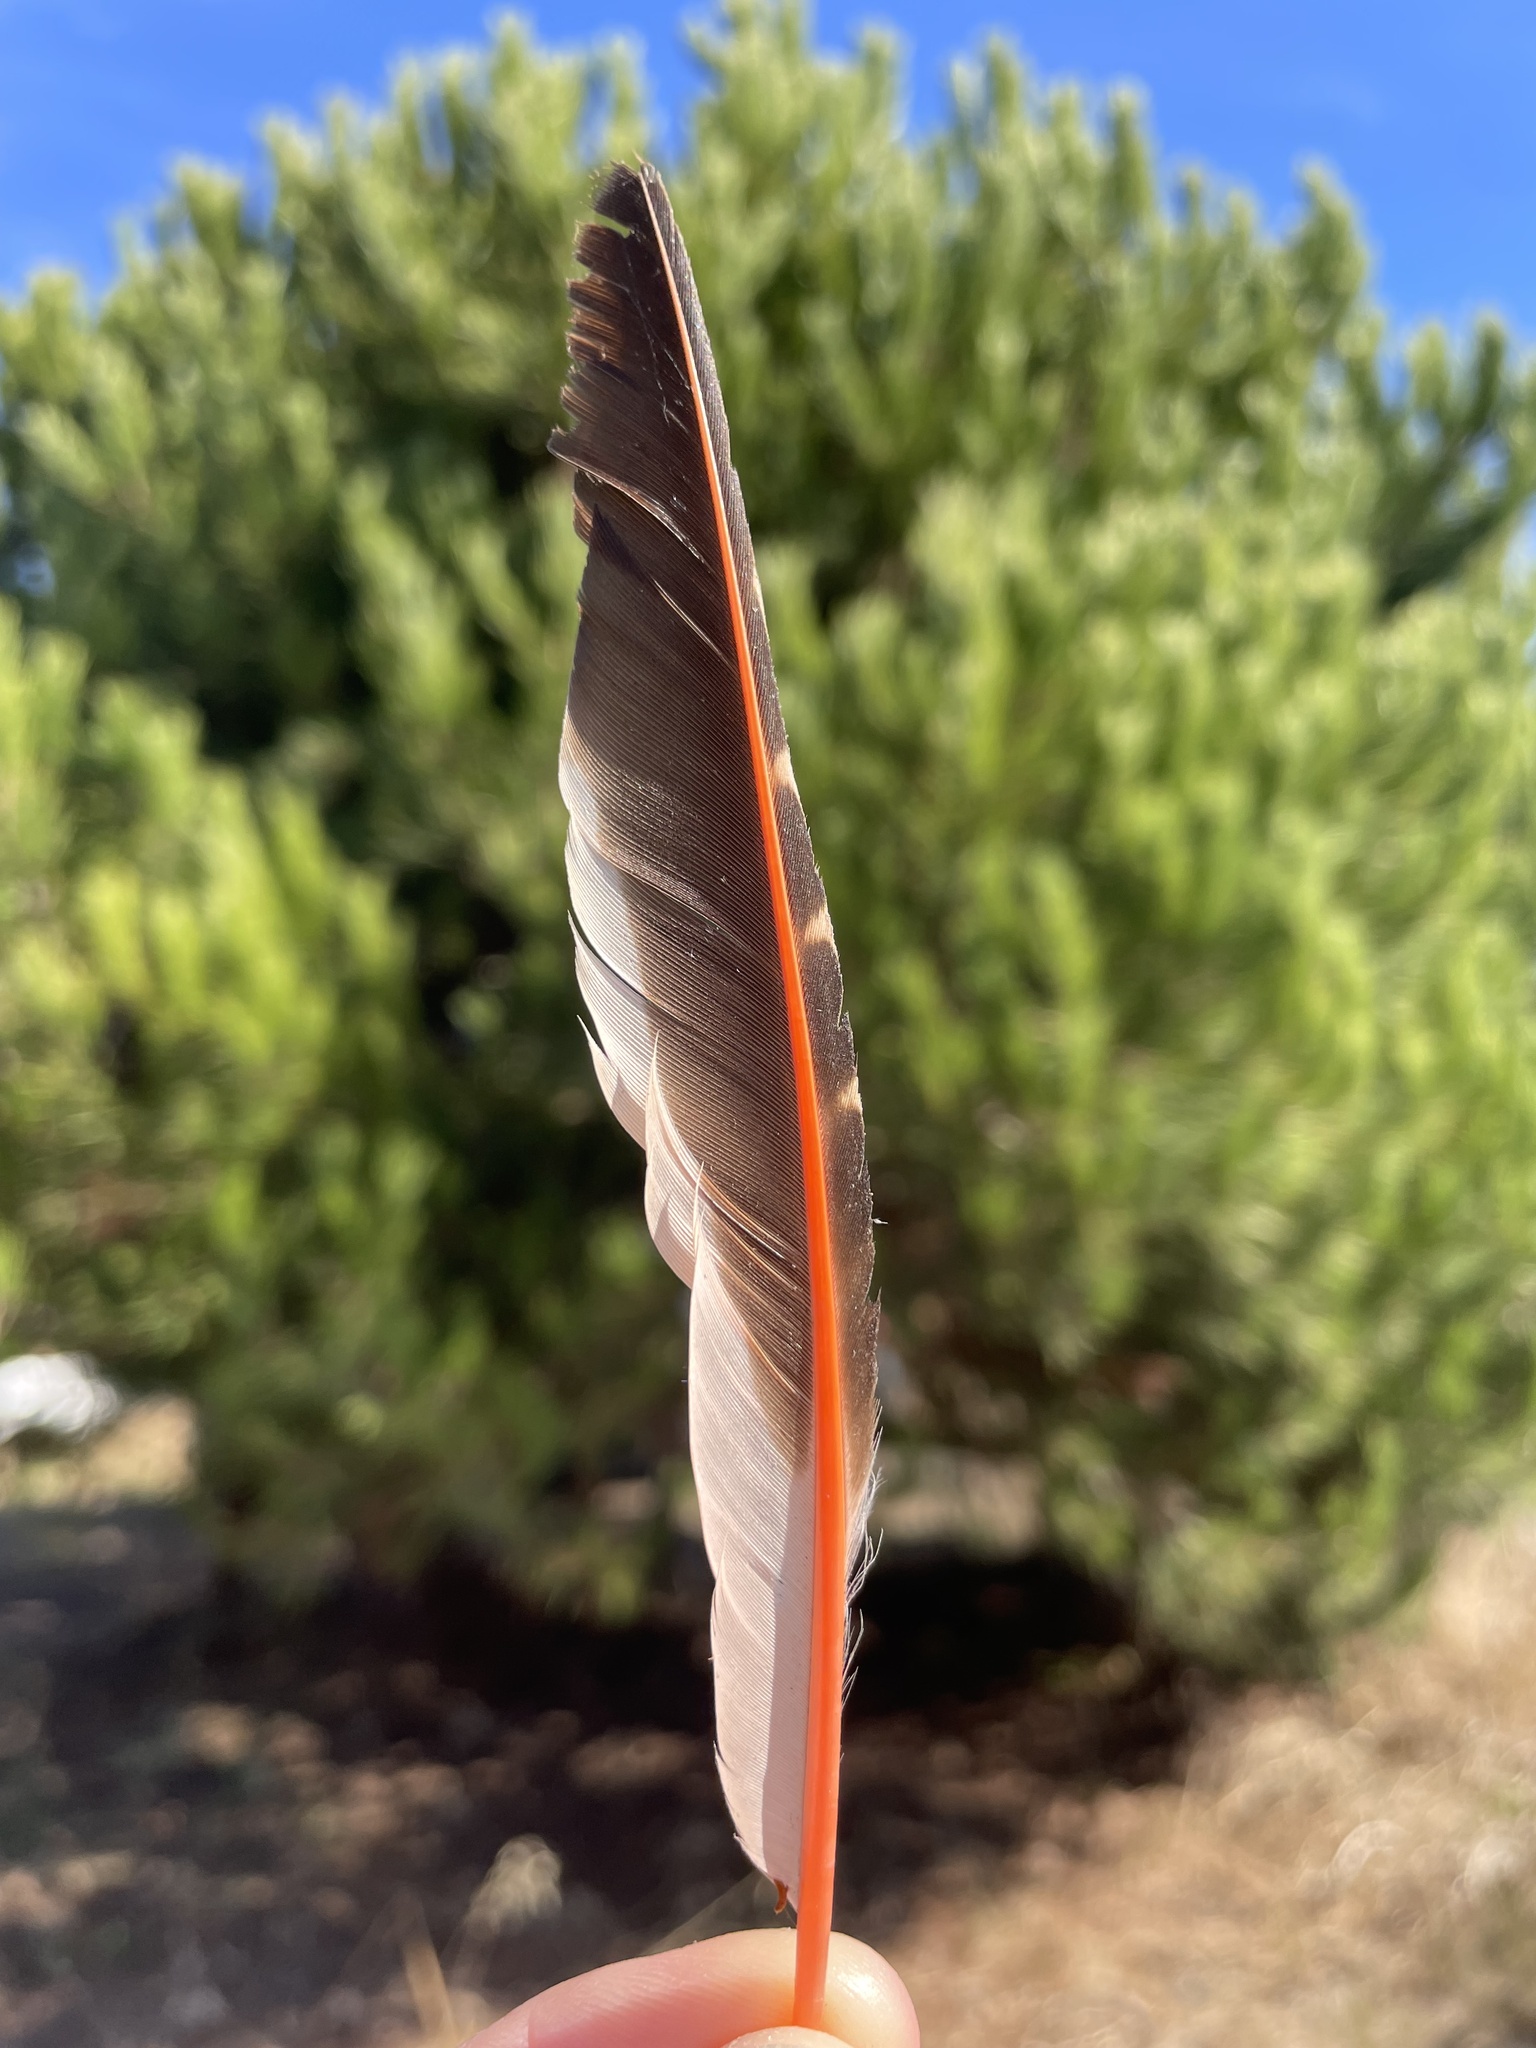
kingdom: Animalia
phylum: Chordata
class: Aves
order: Piciformes
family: Picidae
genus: Colaptes
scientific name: Colaptes auratus
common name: Northern flicker
